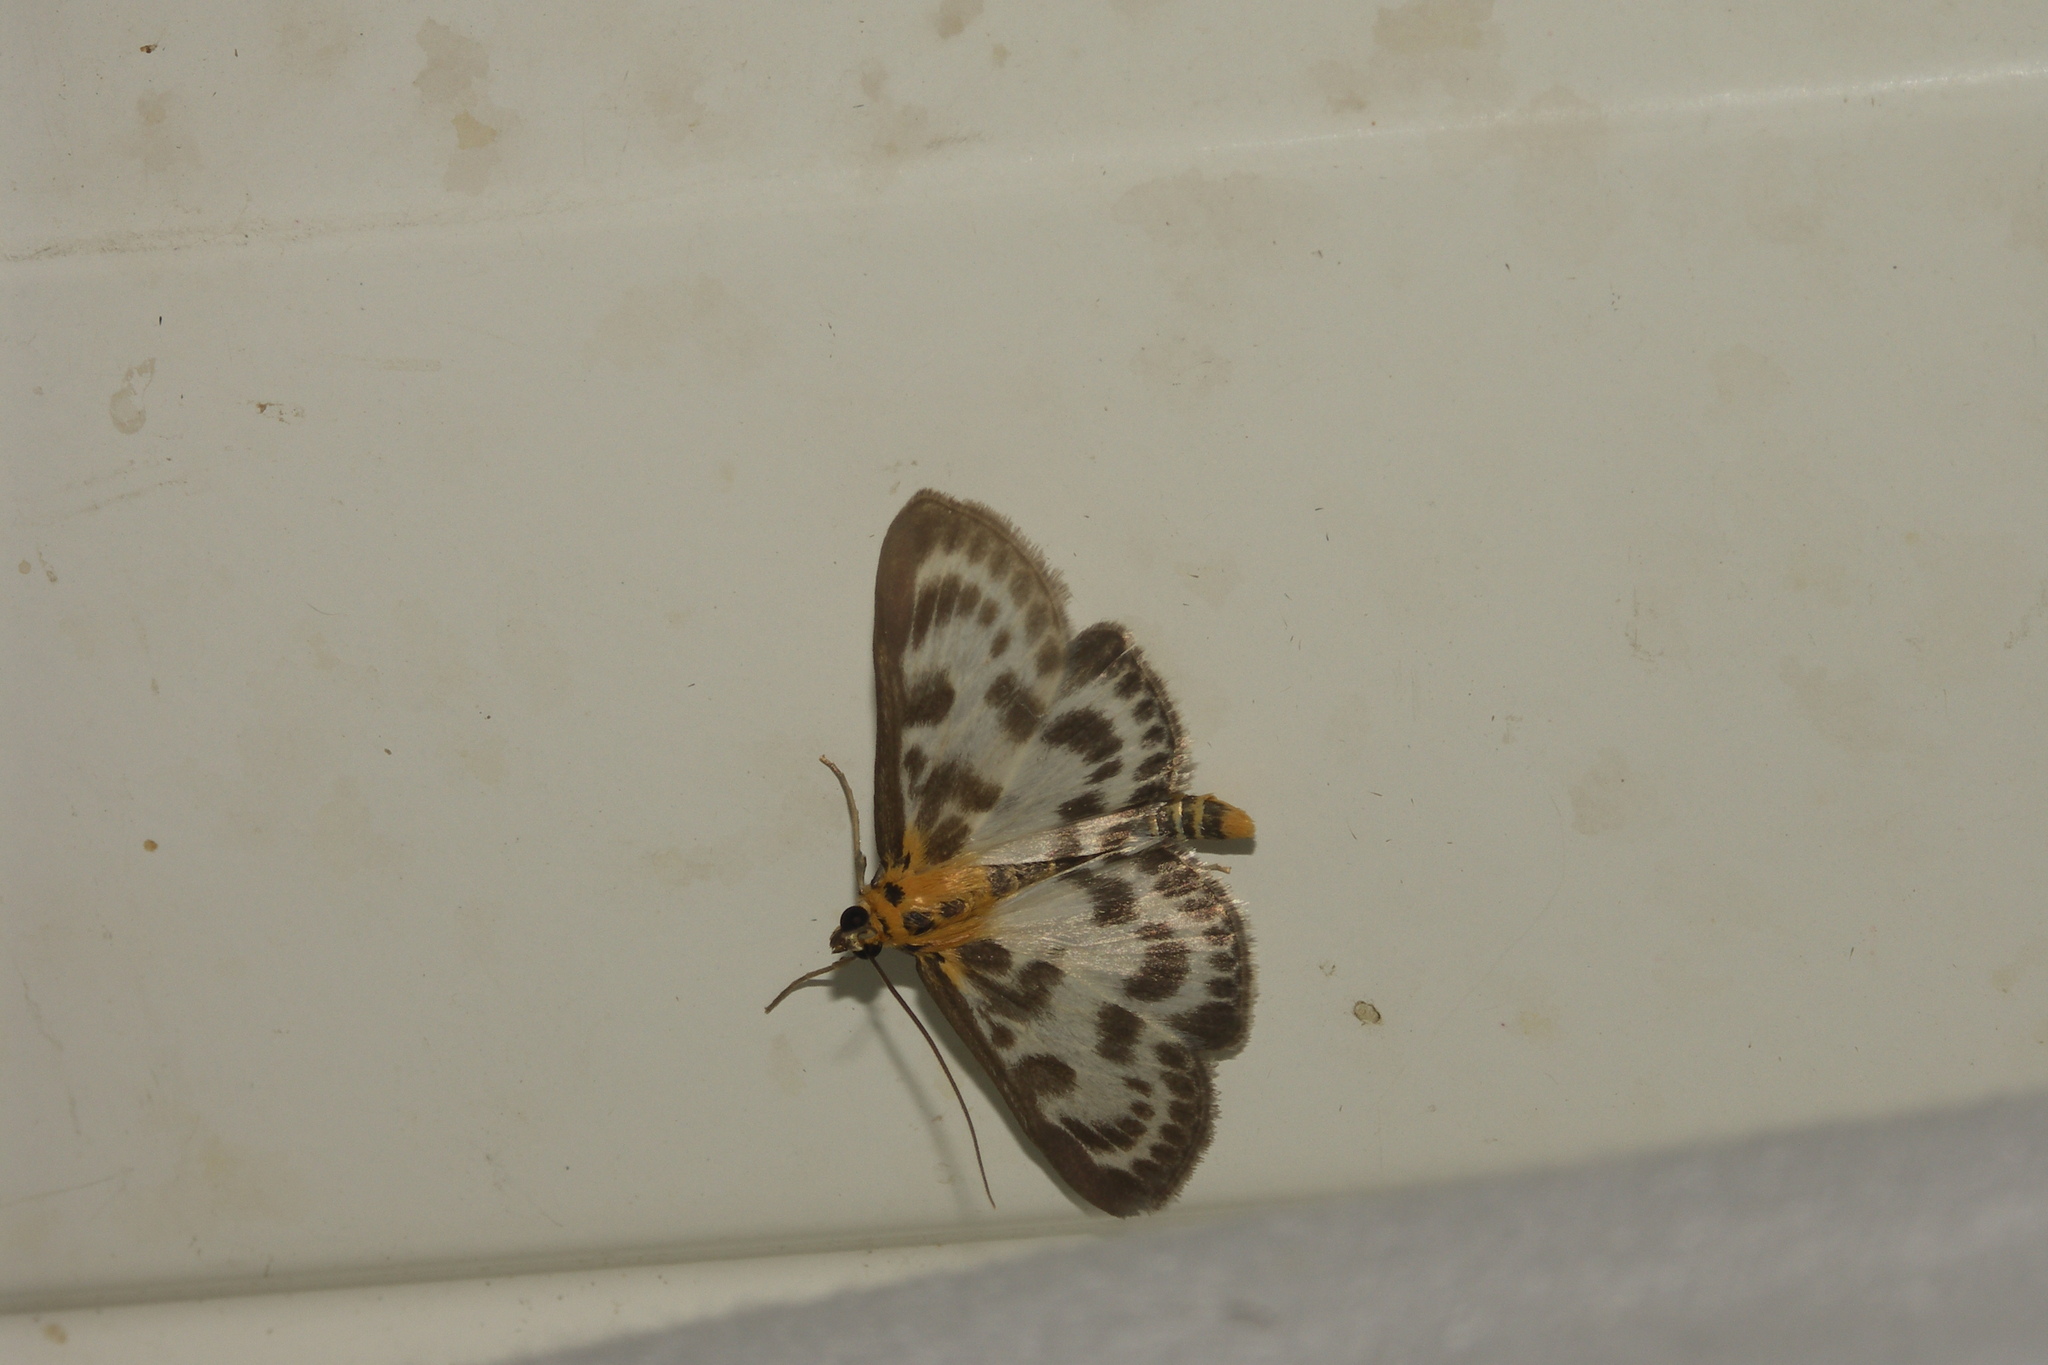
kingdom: Animalia
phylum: Arthropoda
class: Insecta
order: Lepidoptera
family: Crambidae
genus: Anania
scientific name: Anania hortulata
